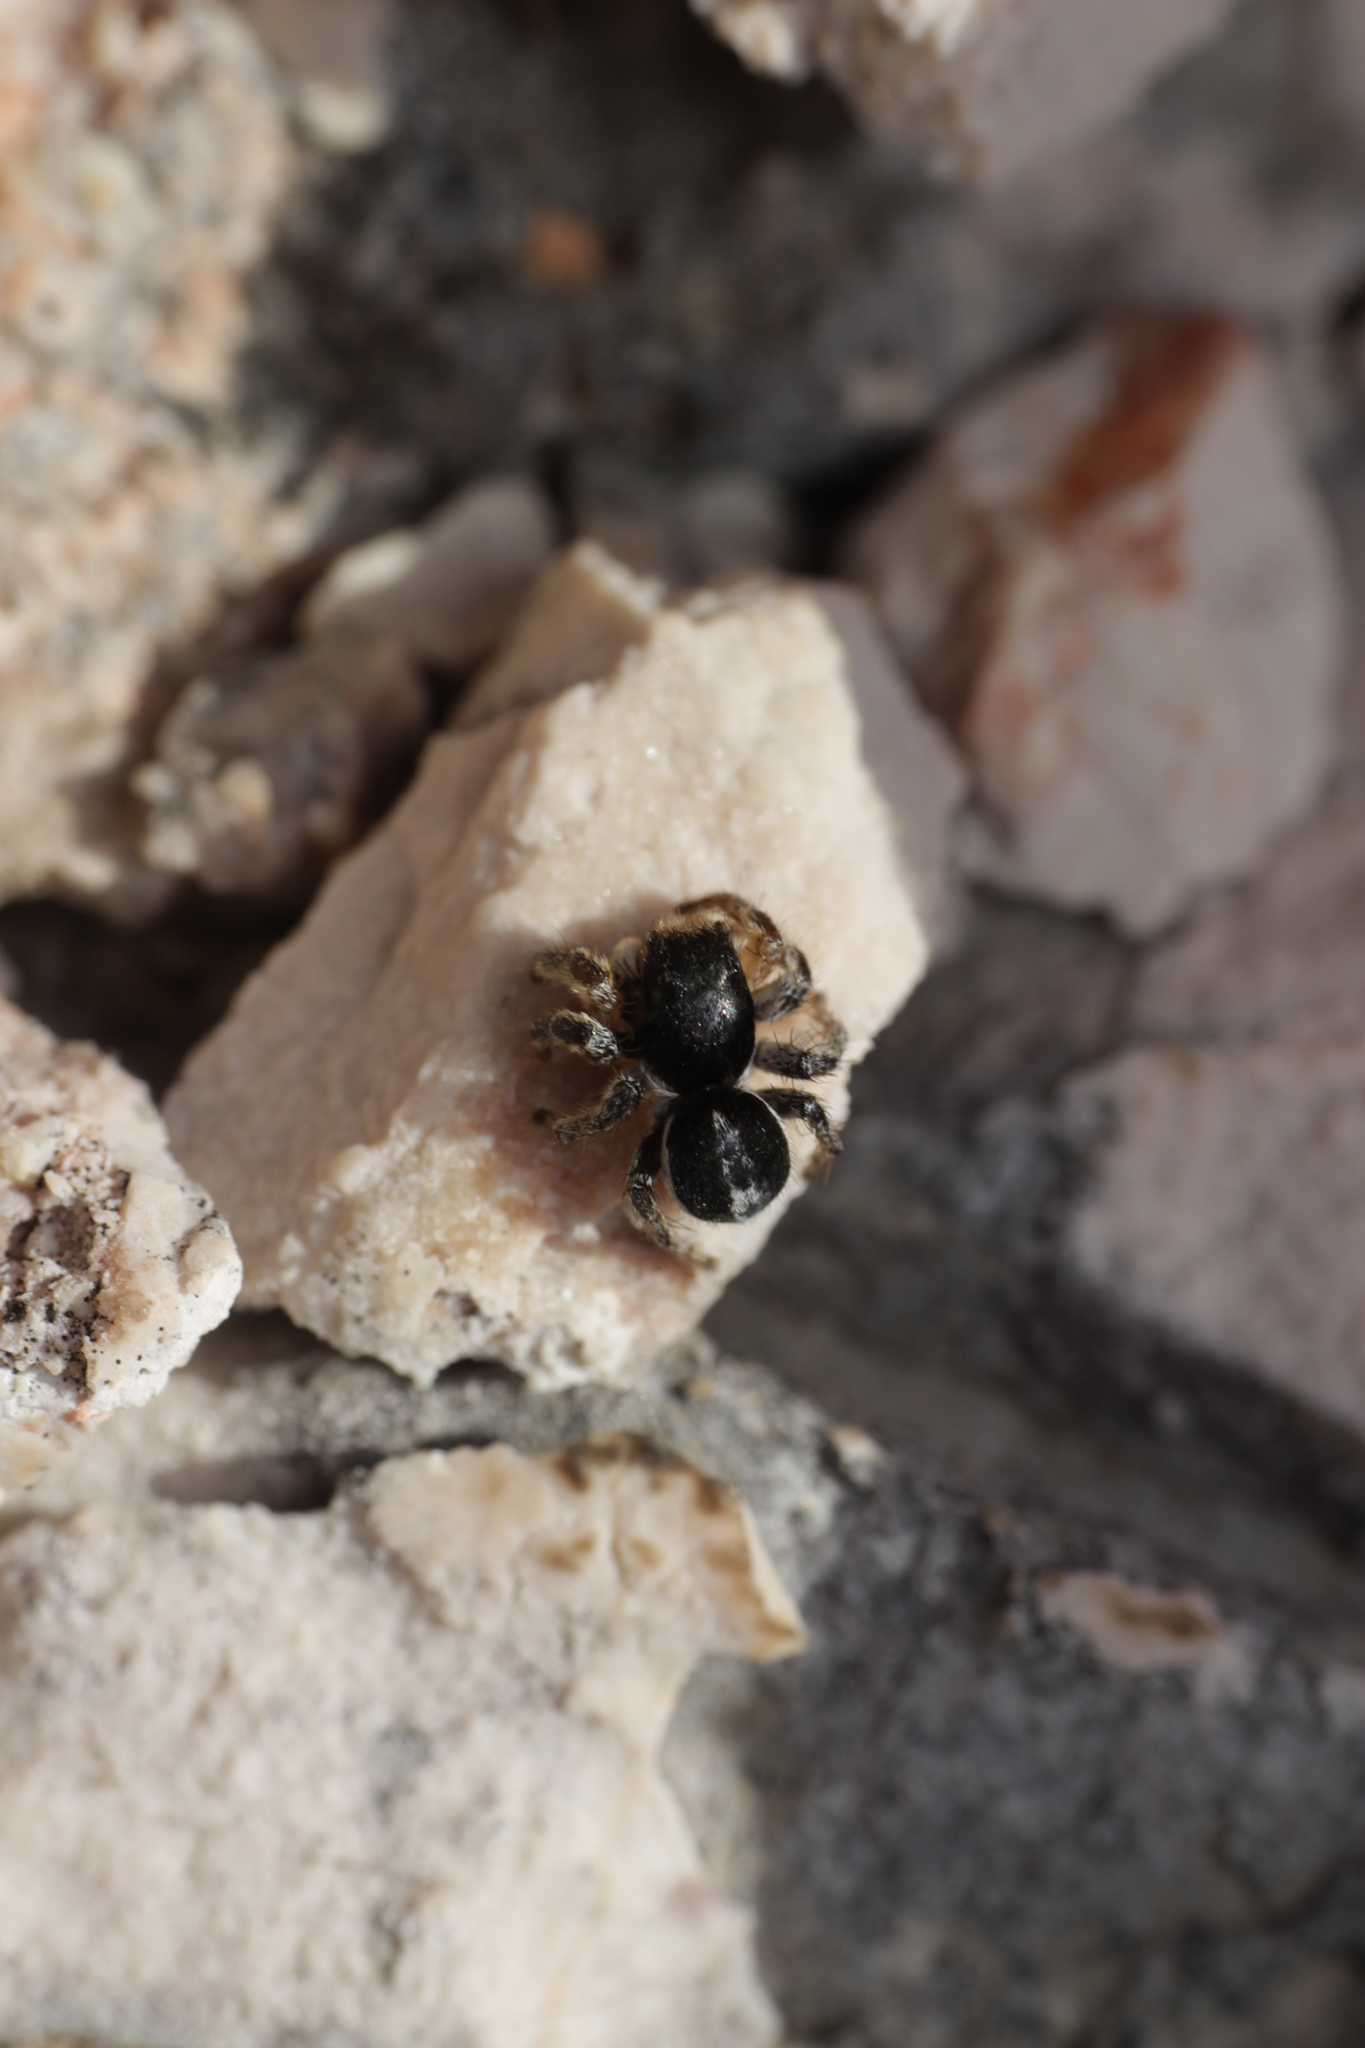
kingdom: Animalia
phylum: Arthropoda
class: Arachnida
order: Araneae
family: Salticidae
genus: Aelurillus
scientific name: Aelurillus v-insignitus
